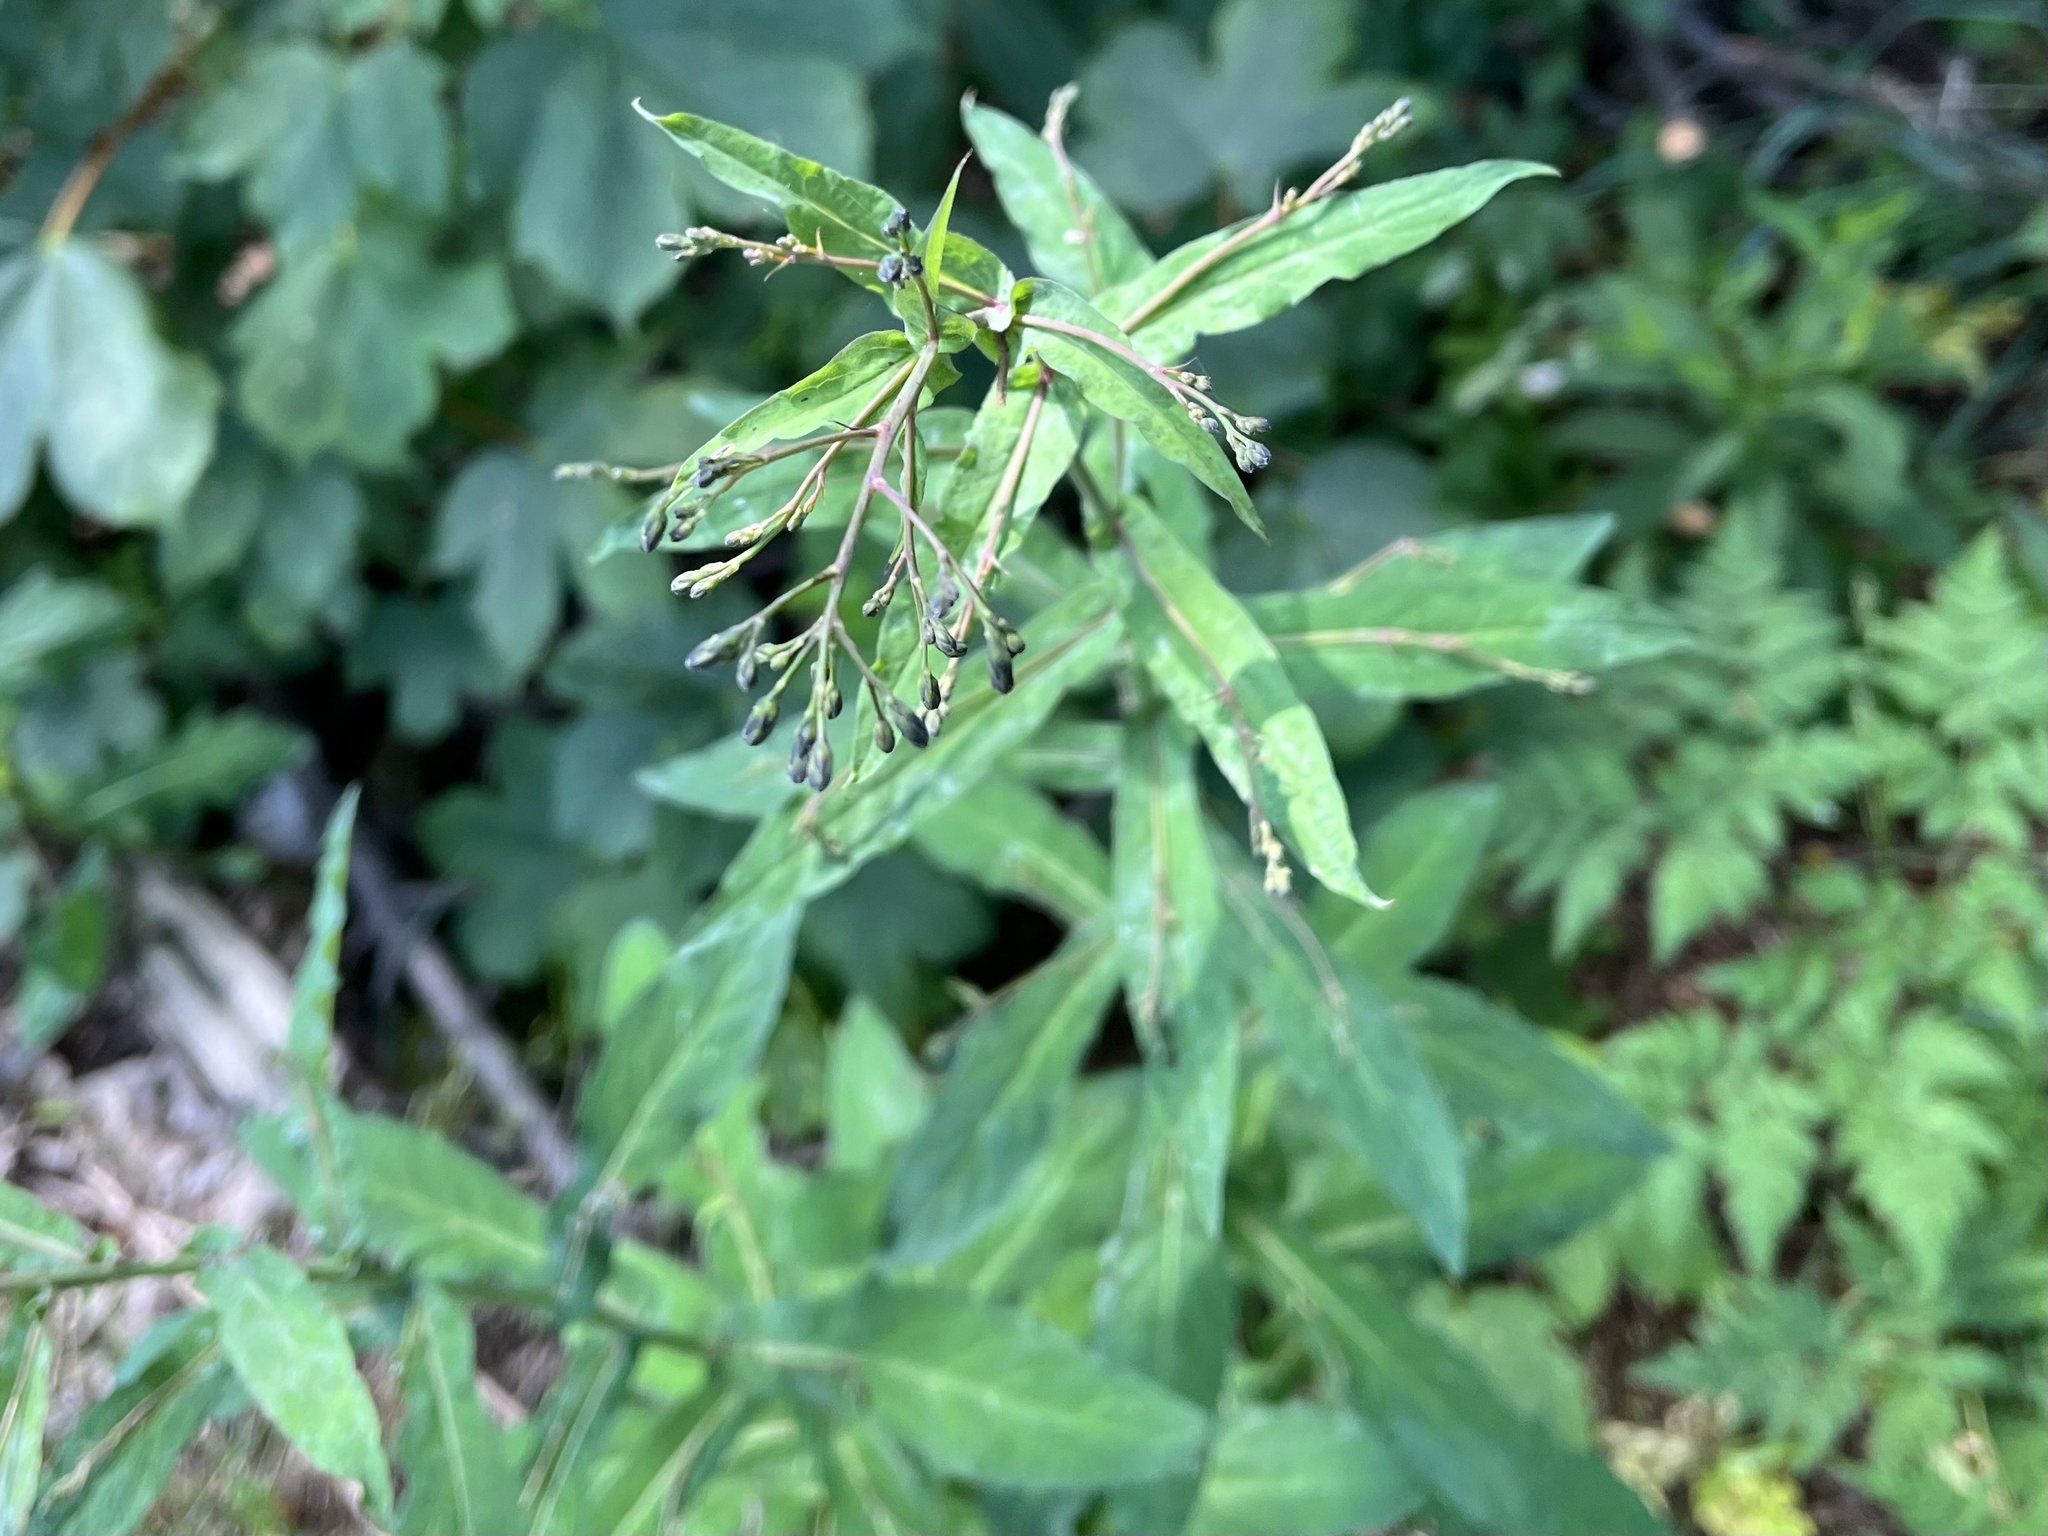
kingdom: Plantae
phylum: Tracheophyta
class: Magnoliopsida
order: Asterales
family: Asteraceae
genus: Prenanthes
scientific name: Prenanthes purpurea
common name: Purple lettuce
